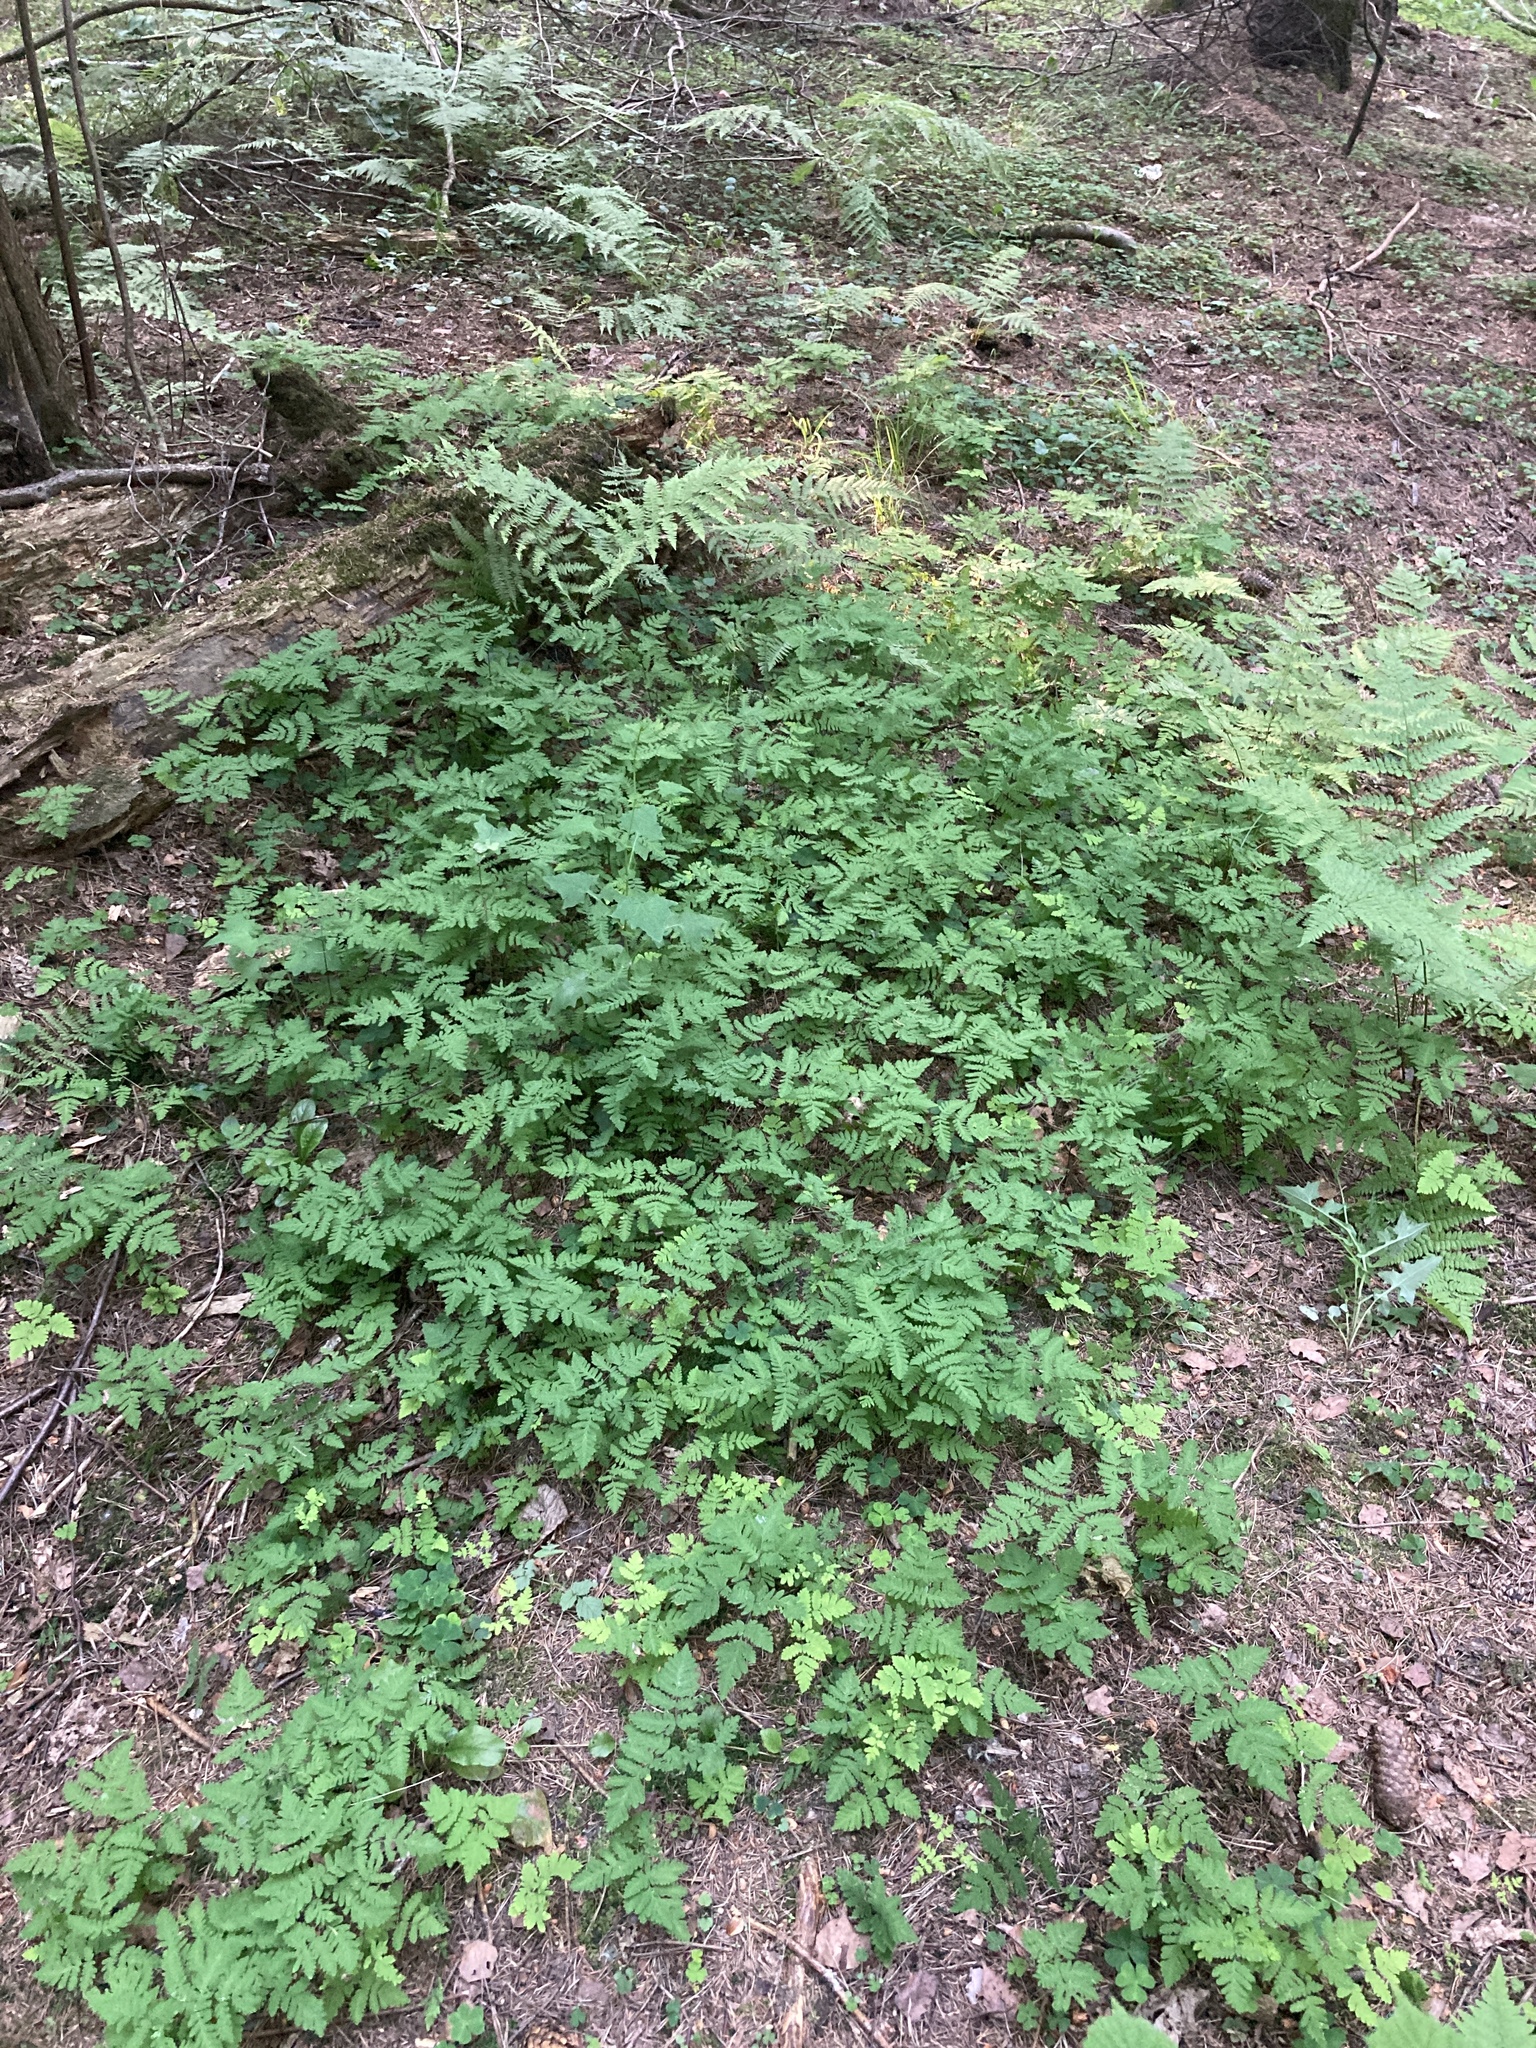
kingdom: Plantae
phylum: Tracheophyta
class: Polypodiopsida
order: Polypodiales
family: Cystopteridaceae
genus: Gymnocarpium
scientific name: Gymnocarpium dryopteris
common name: Oak fern
